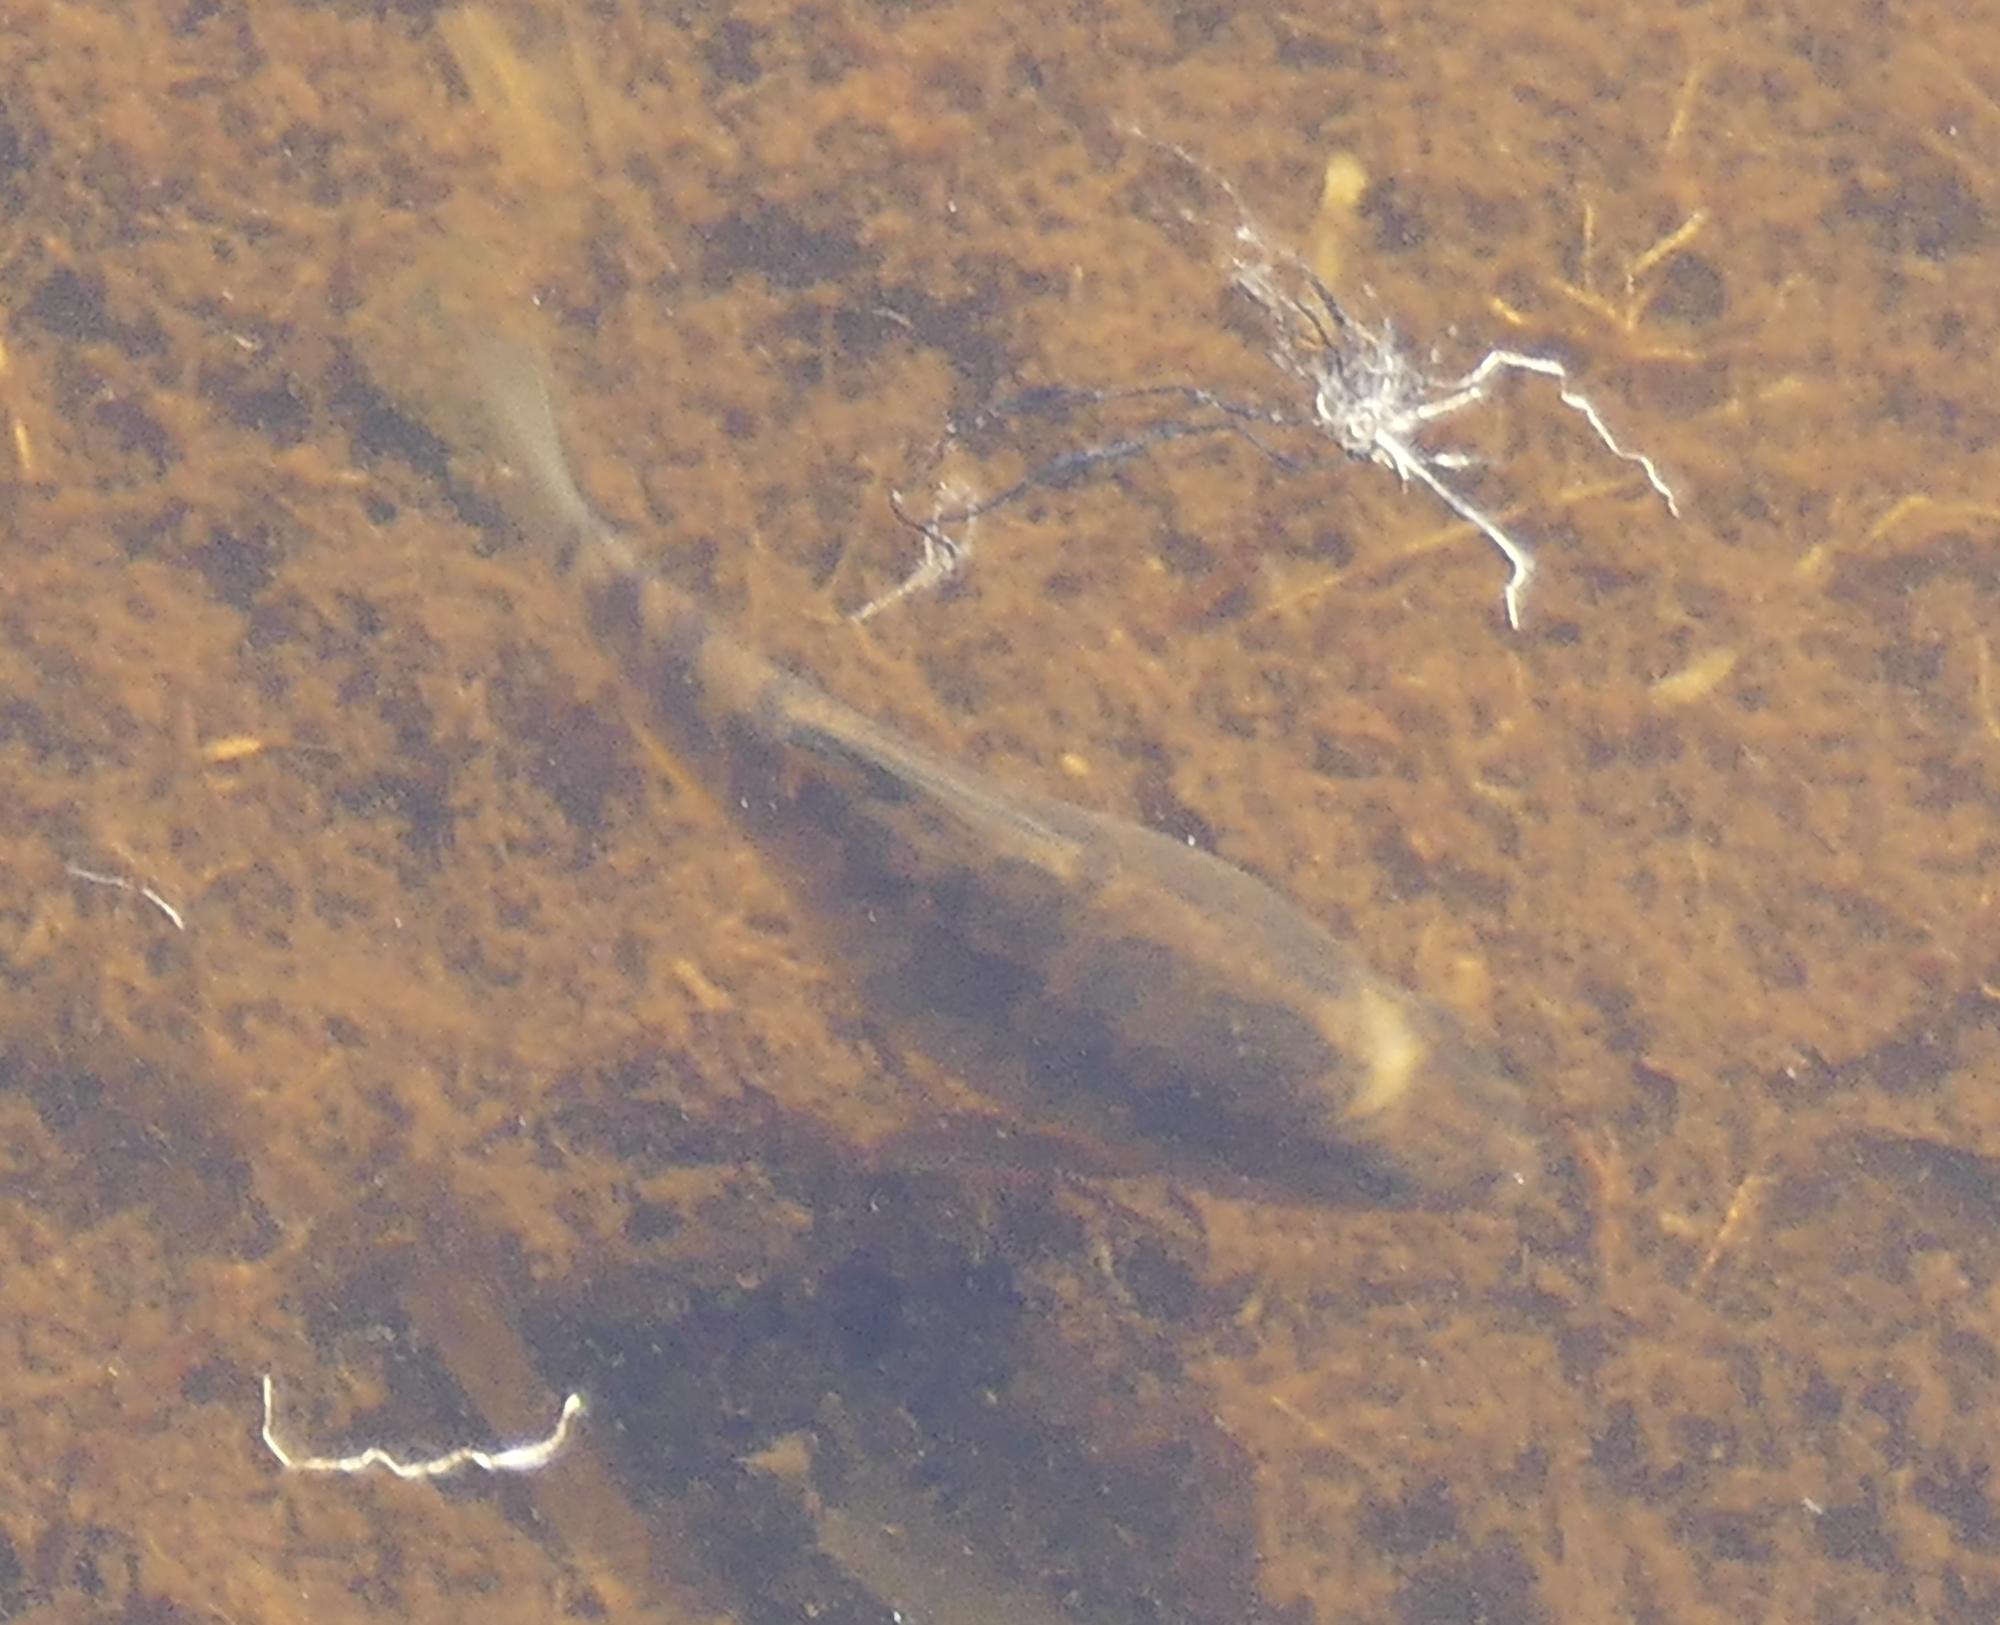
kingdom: Animalia
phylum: Chordata
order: Cyprinodontiformes
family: Cyprinodontidae
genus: Cyprinodon
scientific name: Cyprinodon variegatus
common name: Sheepshead minnow
